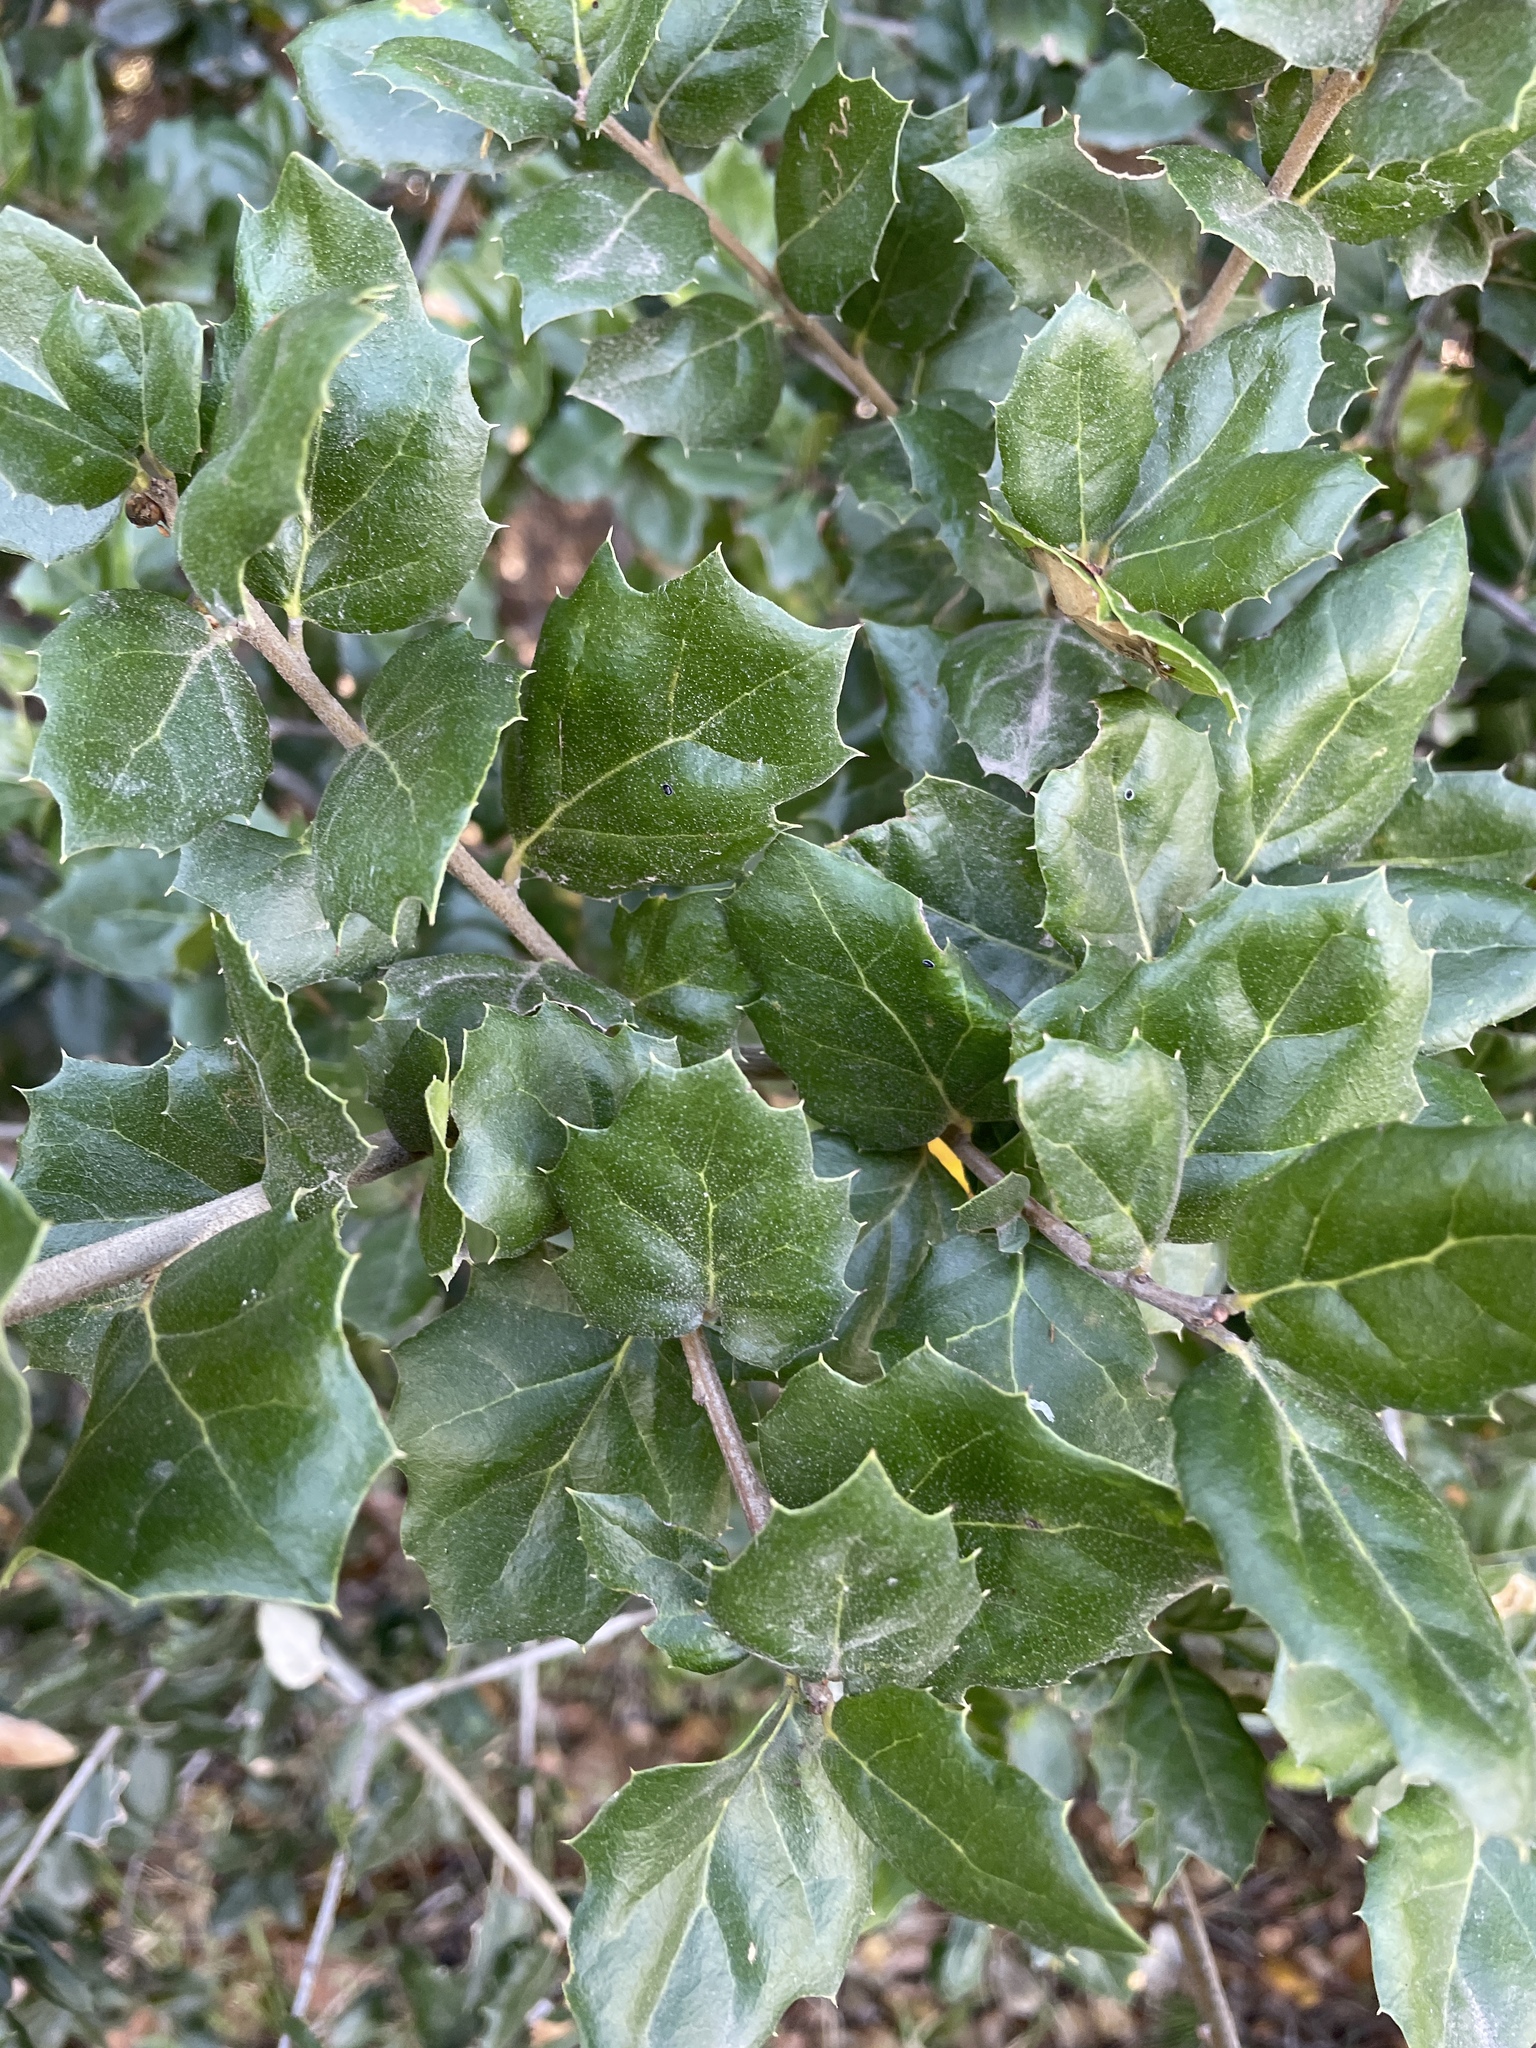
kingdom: Plantae
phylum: Tracheophyta
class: Magnoliopsida
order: Fagales
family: Fagaceae
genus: Quercus
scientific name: Quercus agrifolia
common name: California live oak
